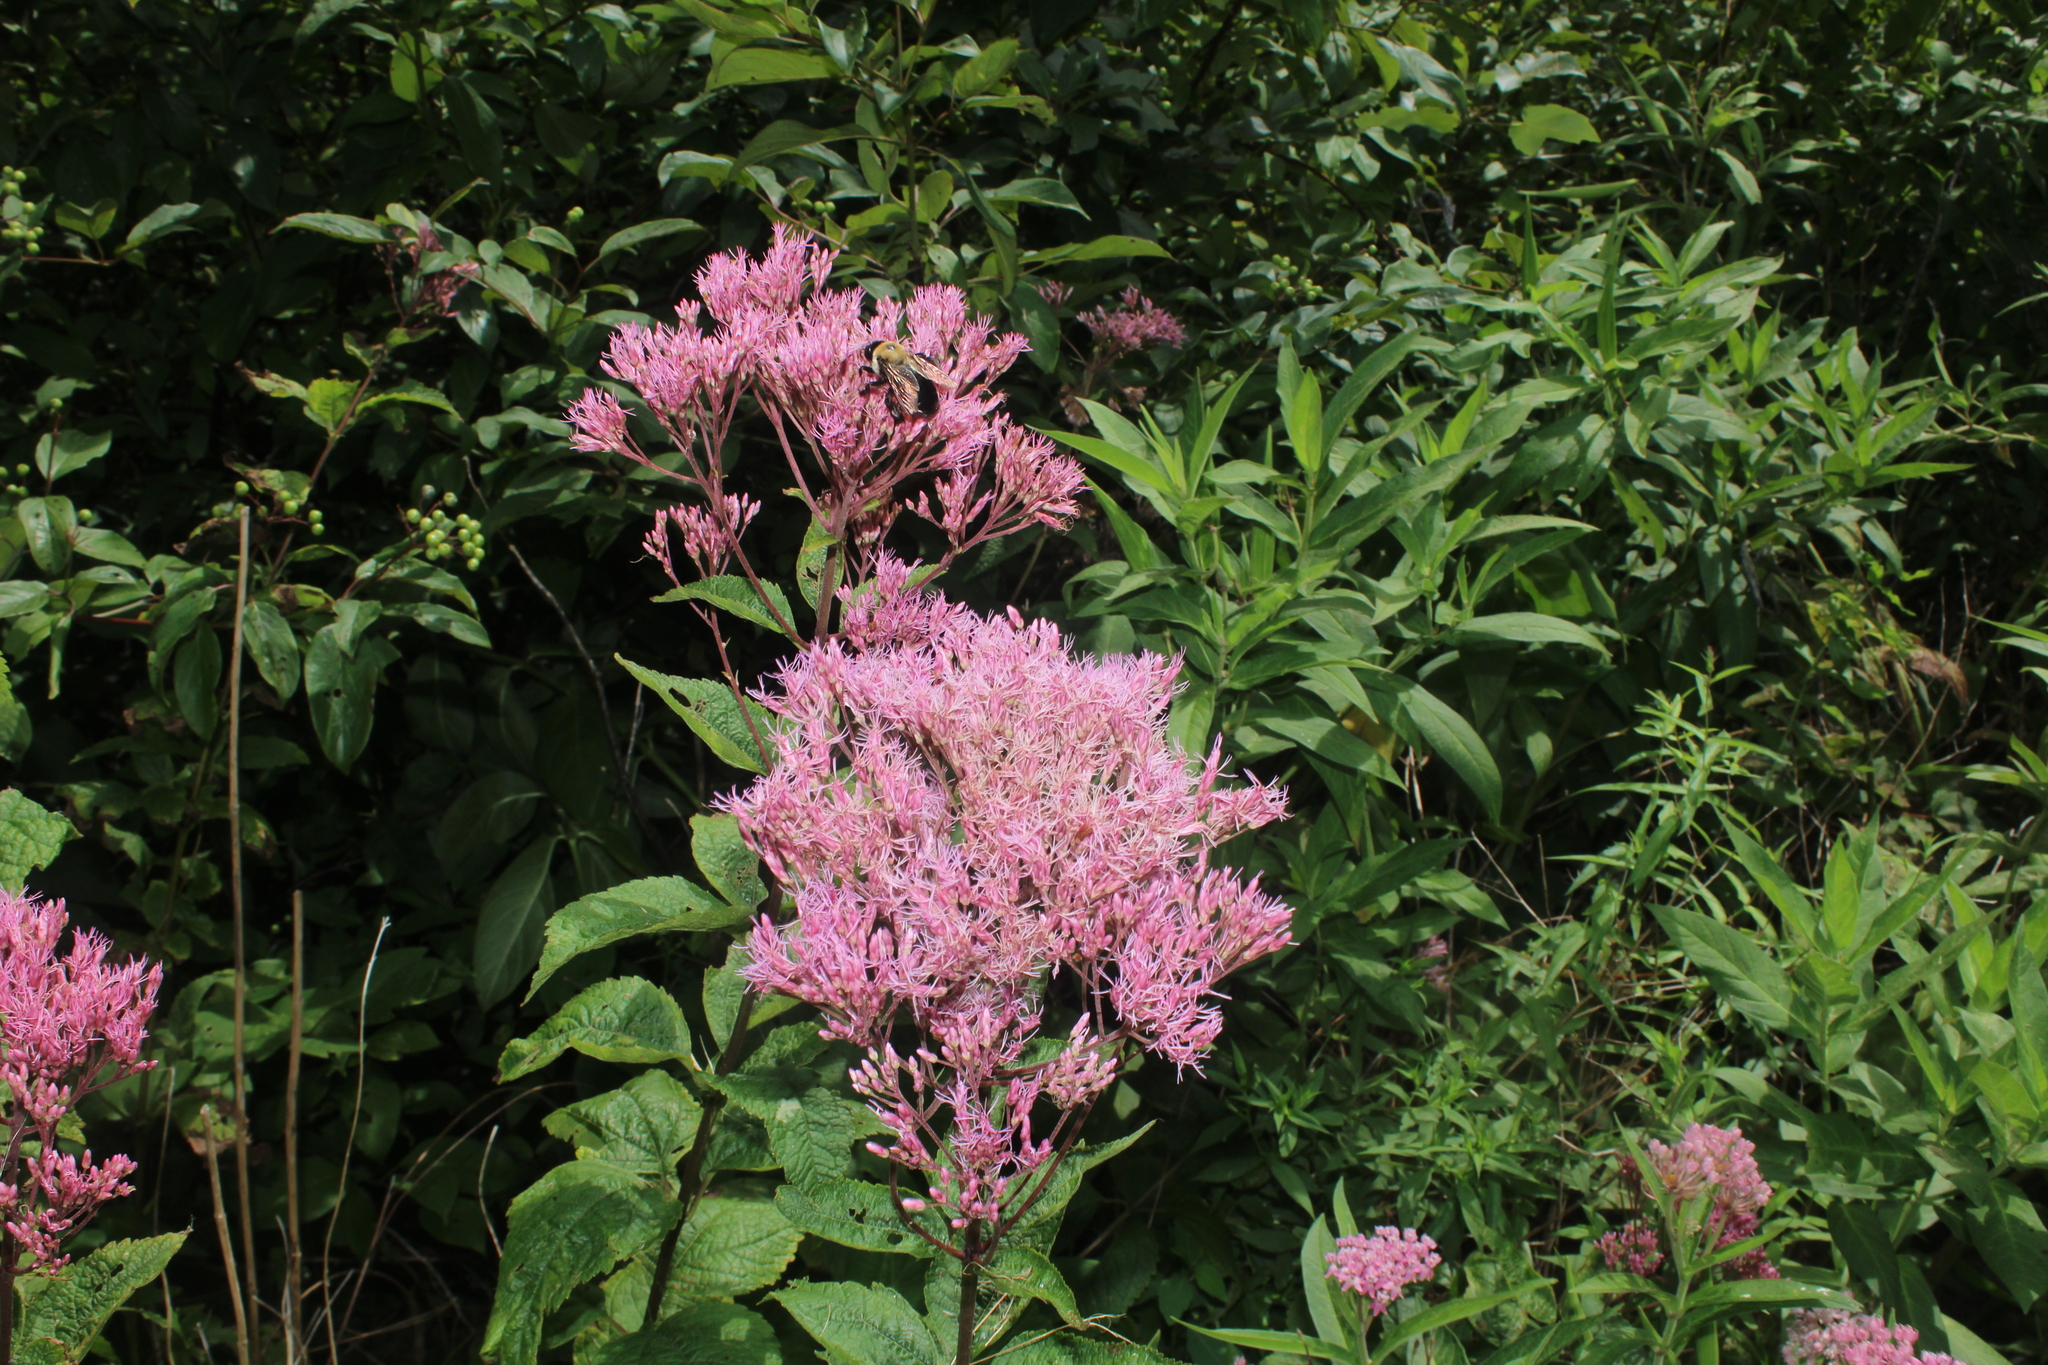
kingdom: Plantae
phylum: Tracheophyta
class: Magnoliopsida
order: Asterales
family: Asteraceae
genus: Eutrochium
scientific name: Eutrochium dubium
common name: Coastal plain joe pye weed
